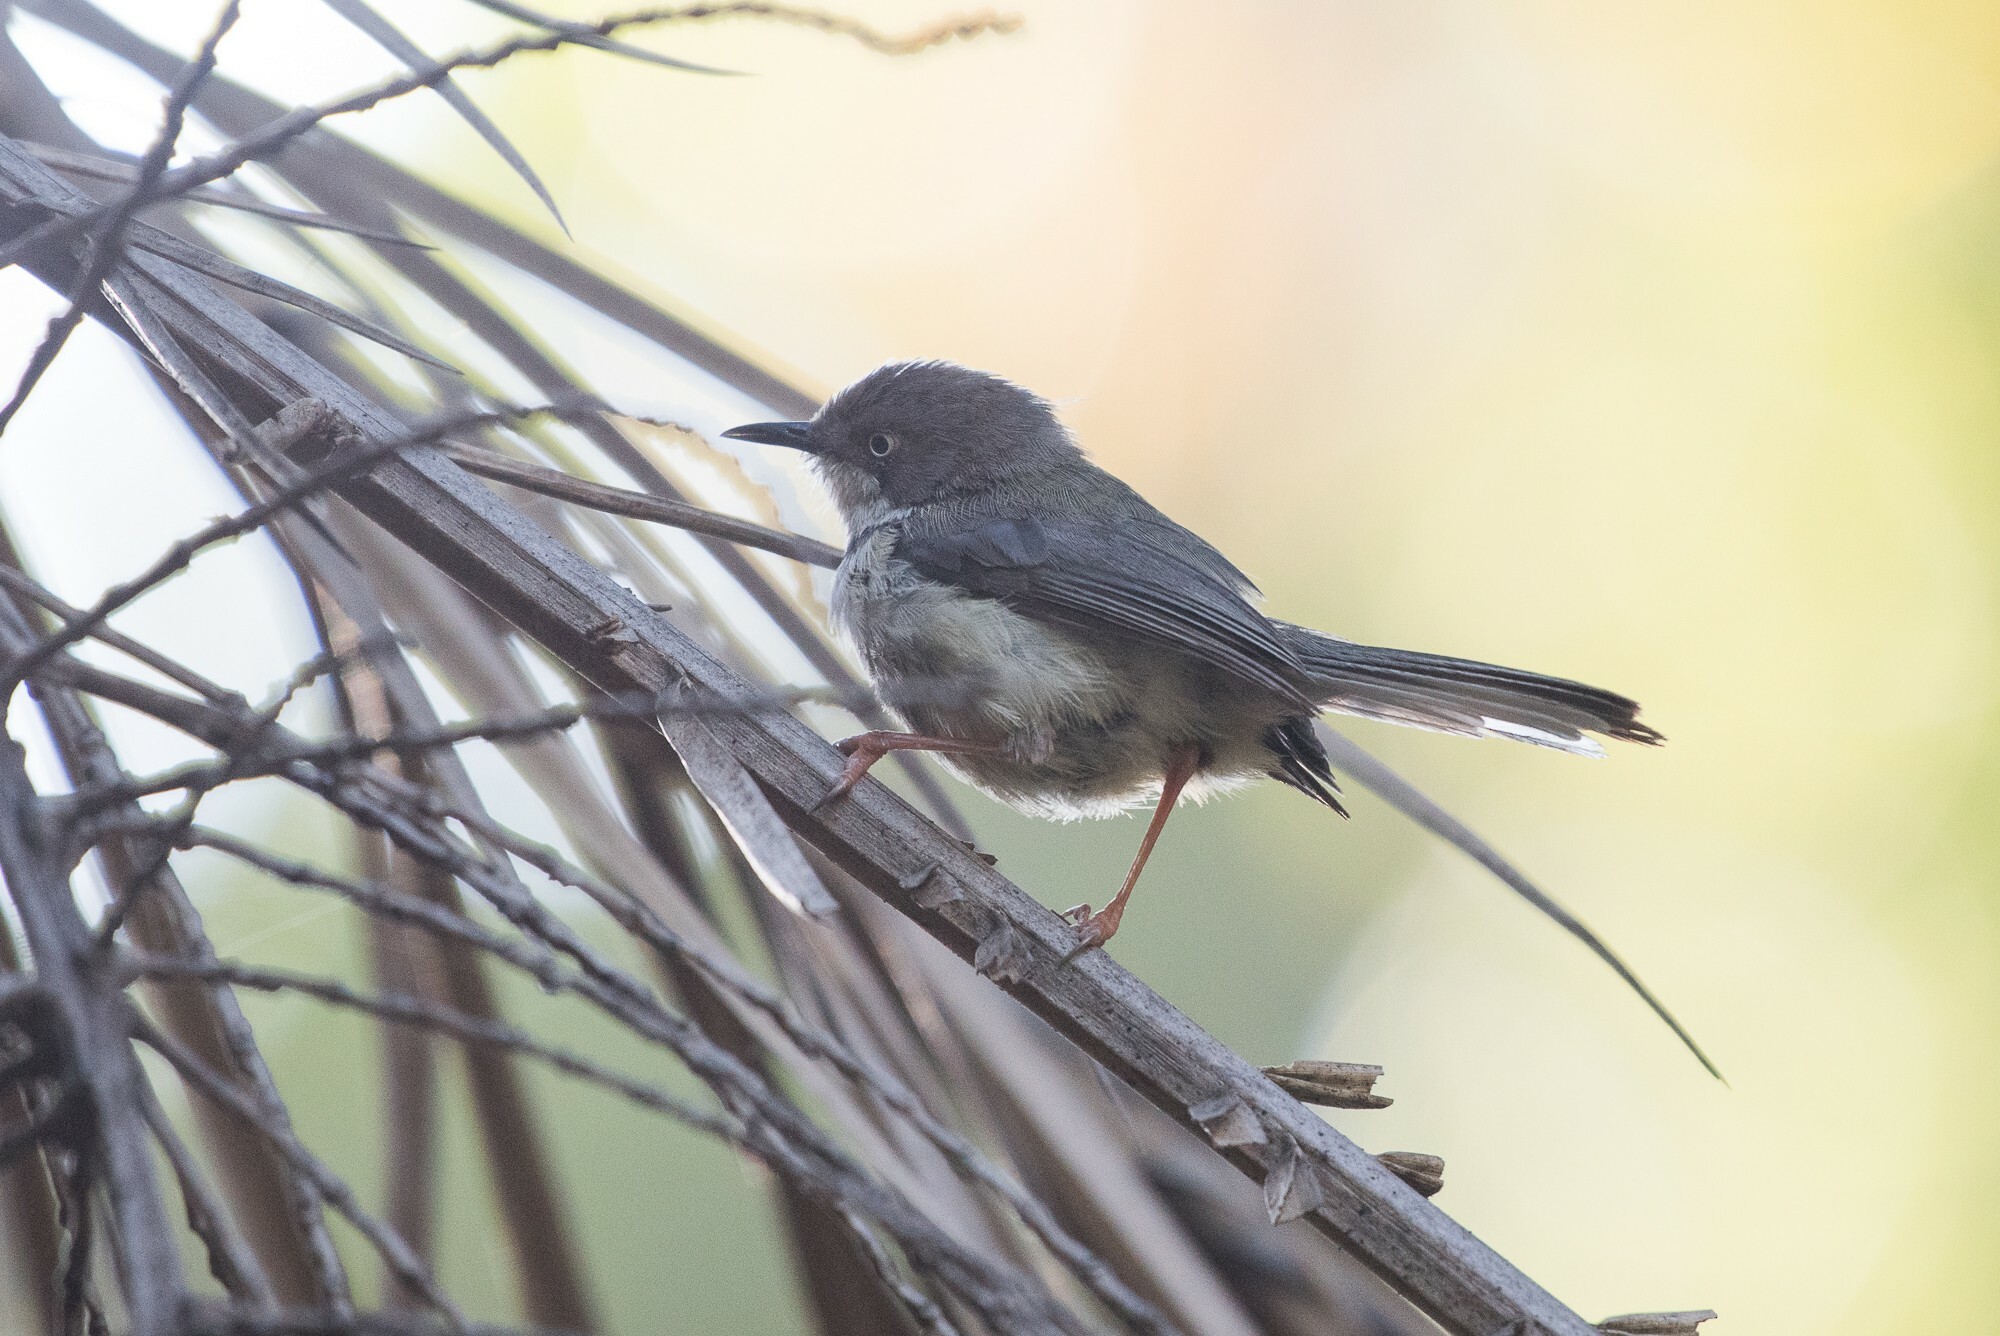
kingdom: Animalia
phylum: Chordata
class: Aves
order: Passeriformes
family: Cisticolidae
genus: Apalis
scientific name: Apalis thoracica
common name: Bar-throated apalis
